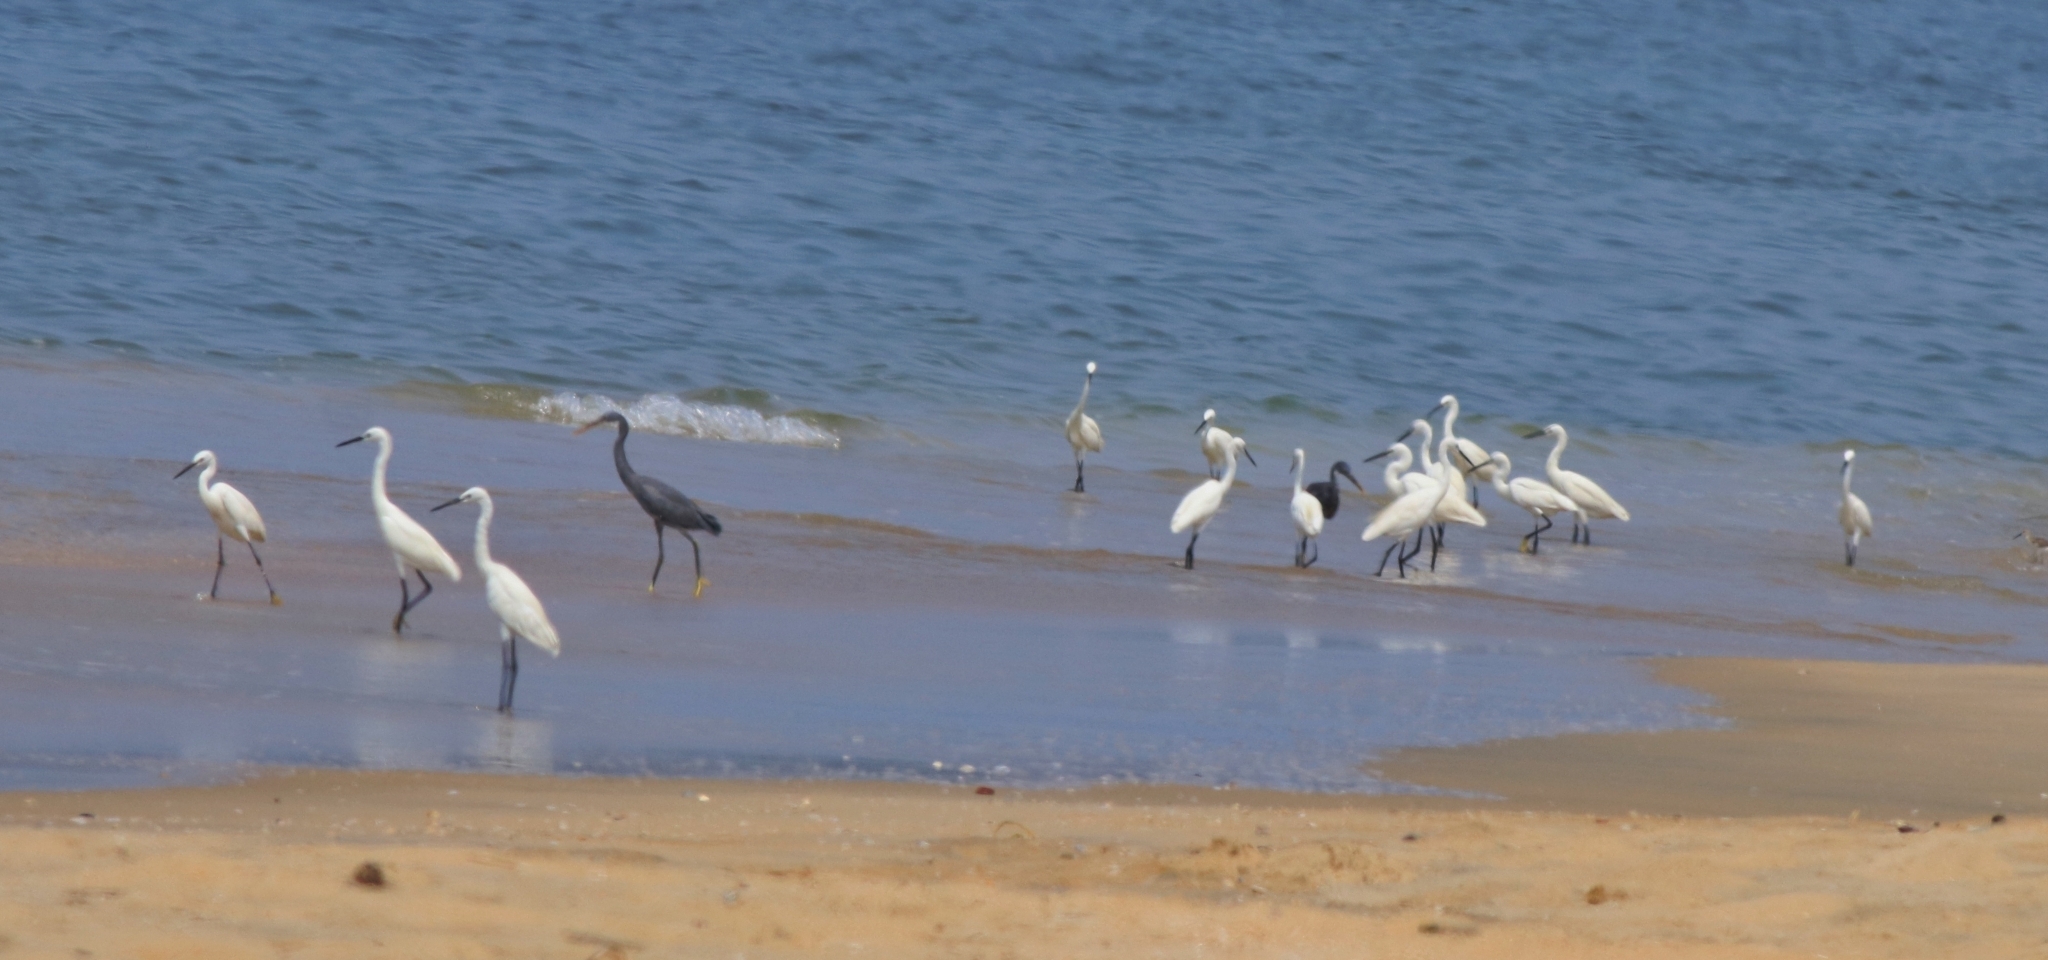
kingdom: Animalia
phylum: Chordata
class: Aves
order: Pelecaniformes
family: Ardeidae
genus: Egretta
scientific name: Egretta gularis
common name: Western reef-heron
